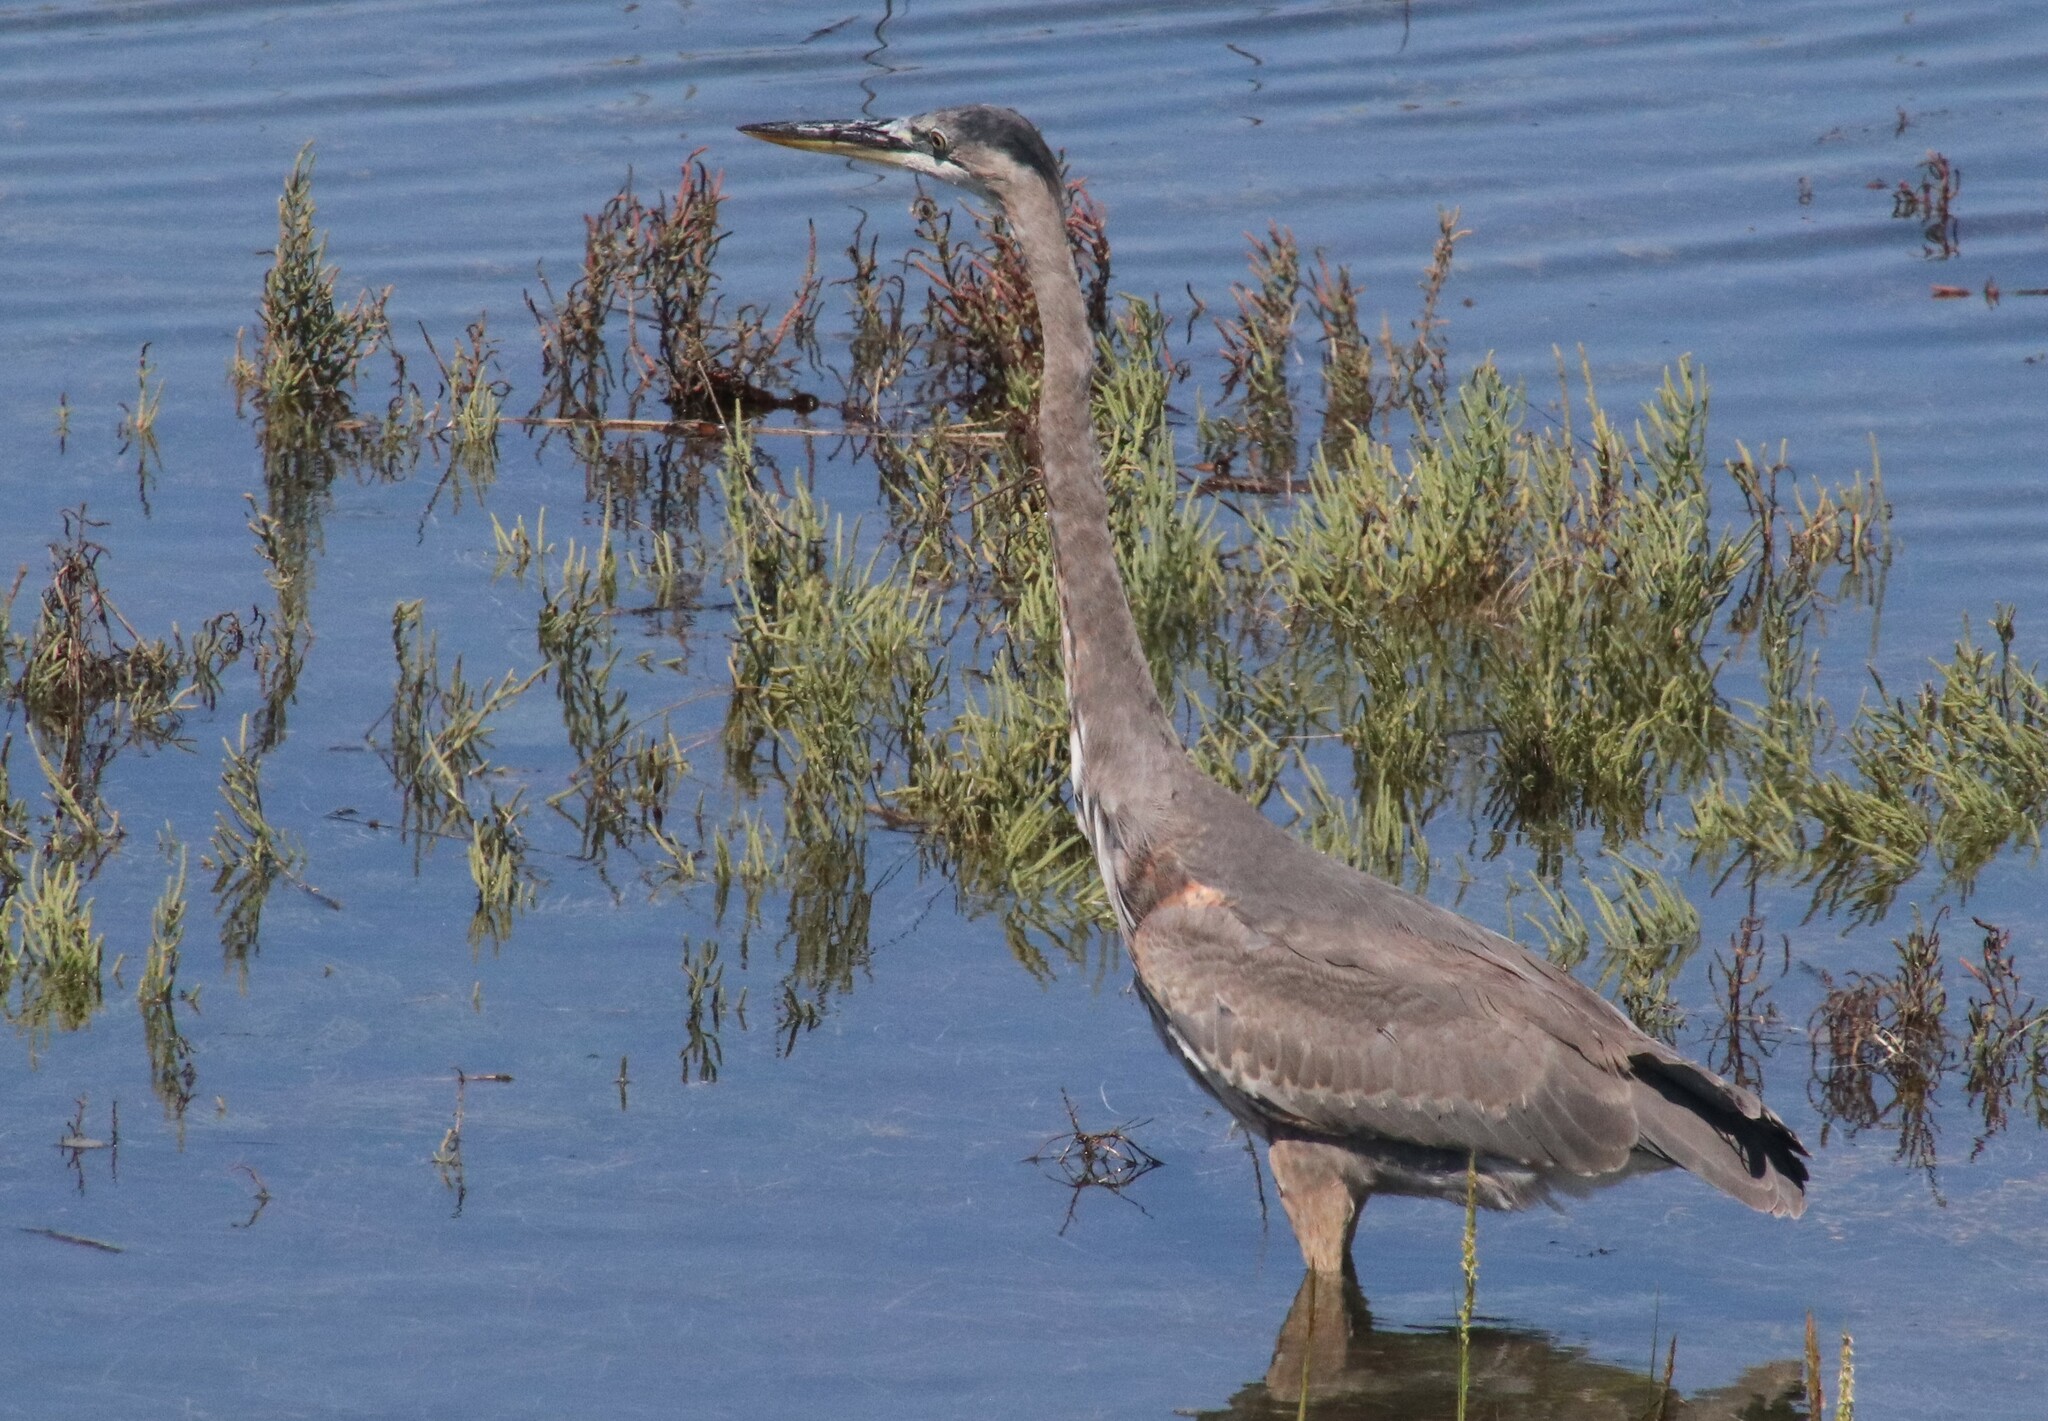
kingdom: Animalia
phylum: Chordata
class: Aves
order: Pelecaniformes
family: Ardeidae
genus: Ardea
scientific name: Ardea herodias
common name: Great blue heron
